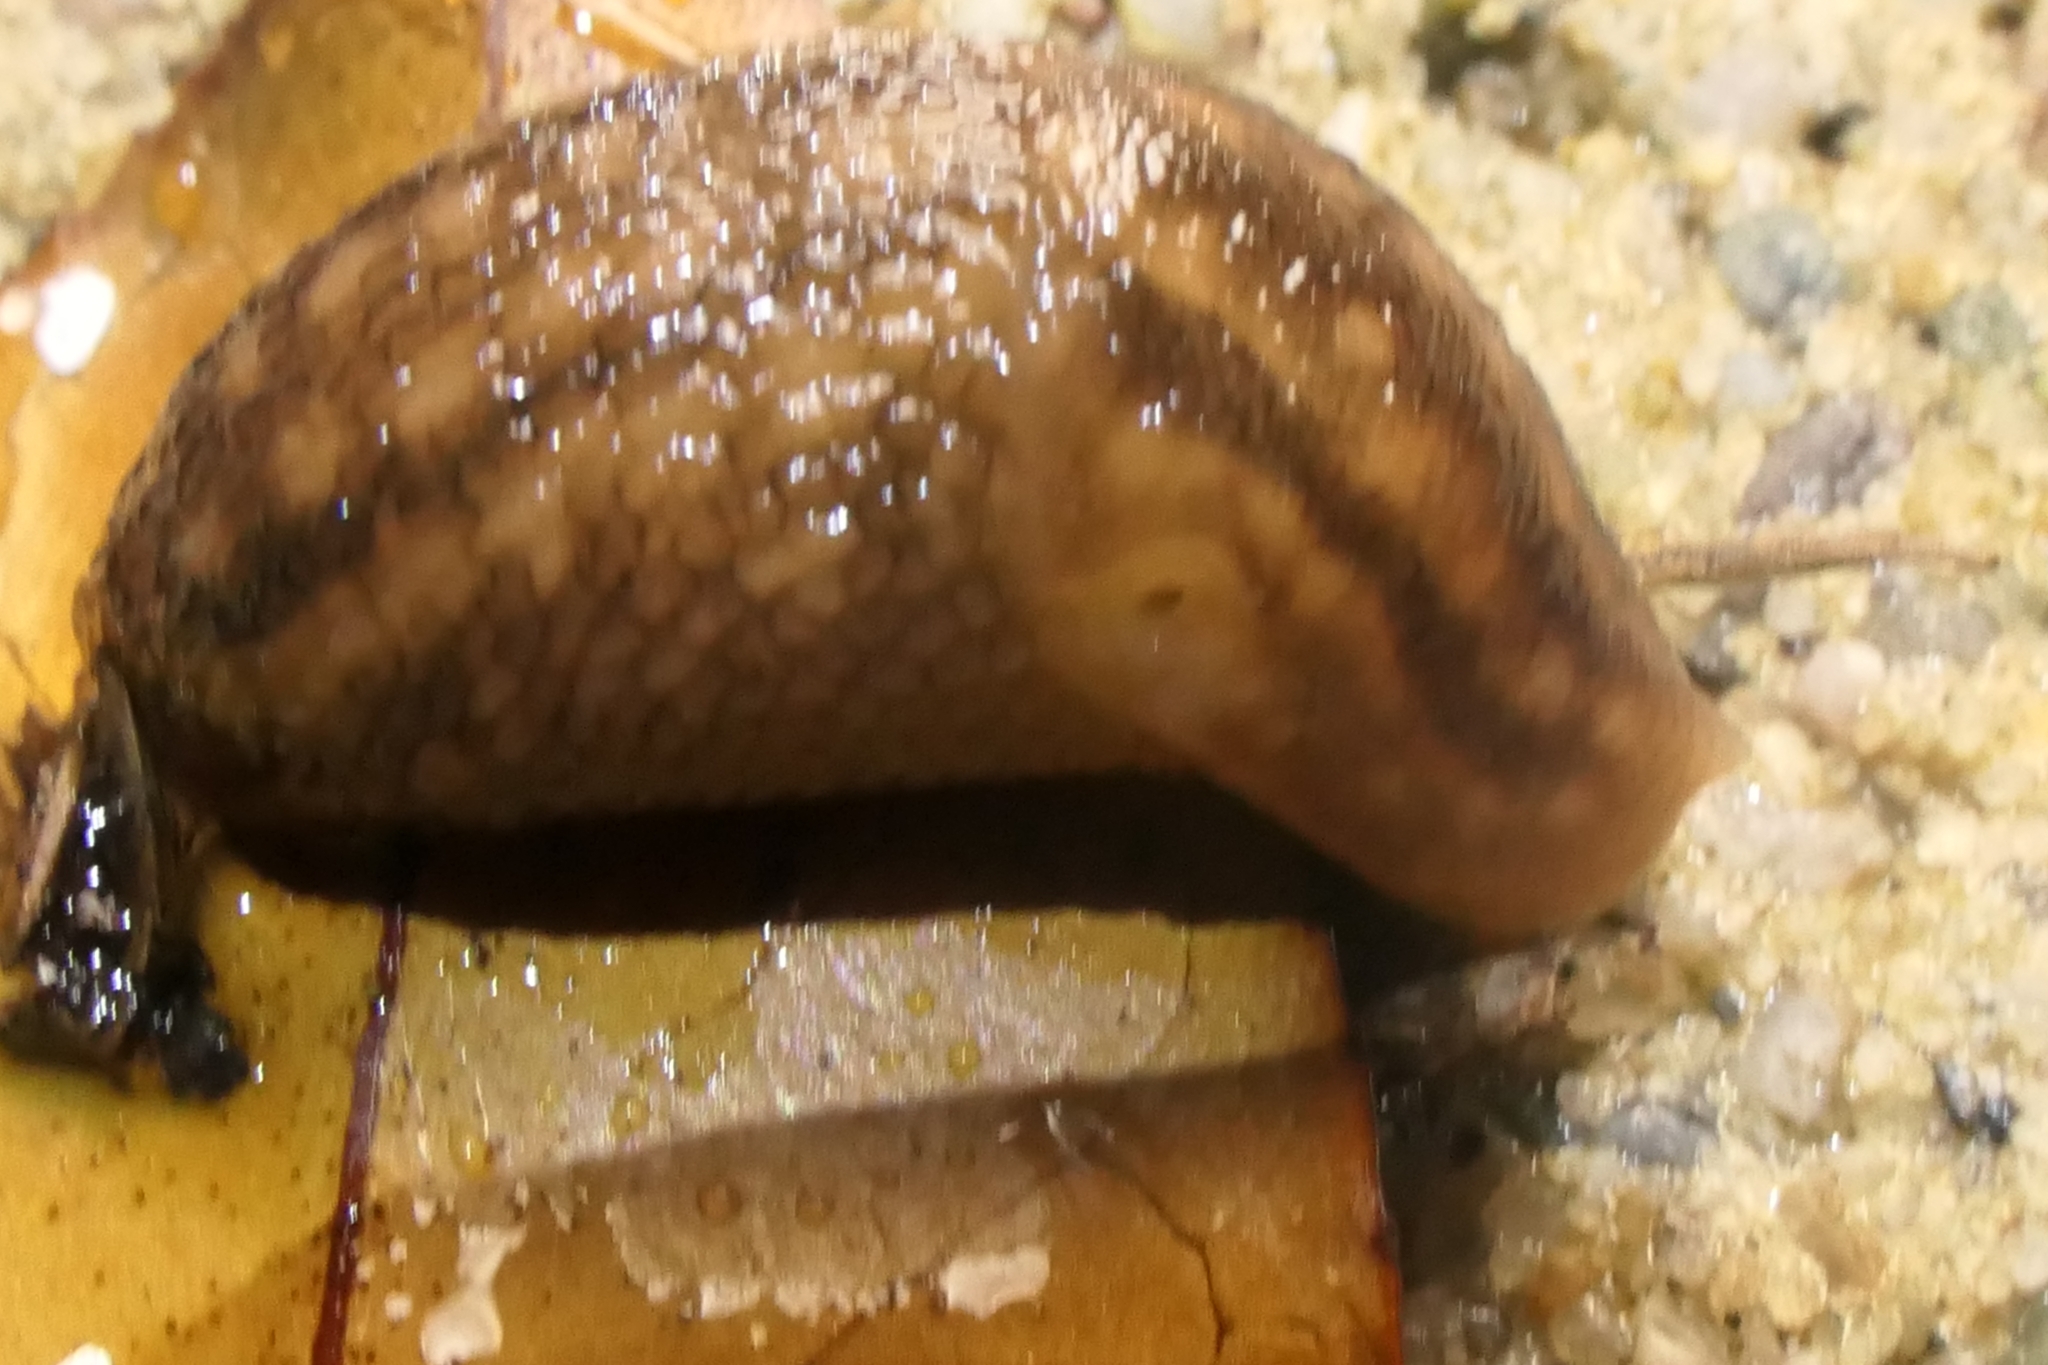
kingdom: Animalia
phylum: Mollusca
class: Gastropoda
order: Stylommatophora
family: Limacidae
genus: Limax
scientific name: Limax maximus
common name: Great grey slug
